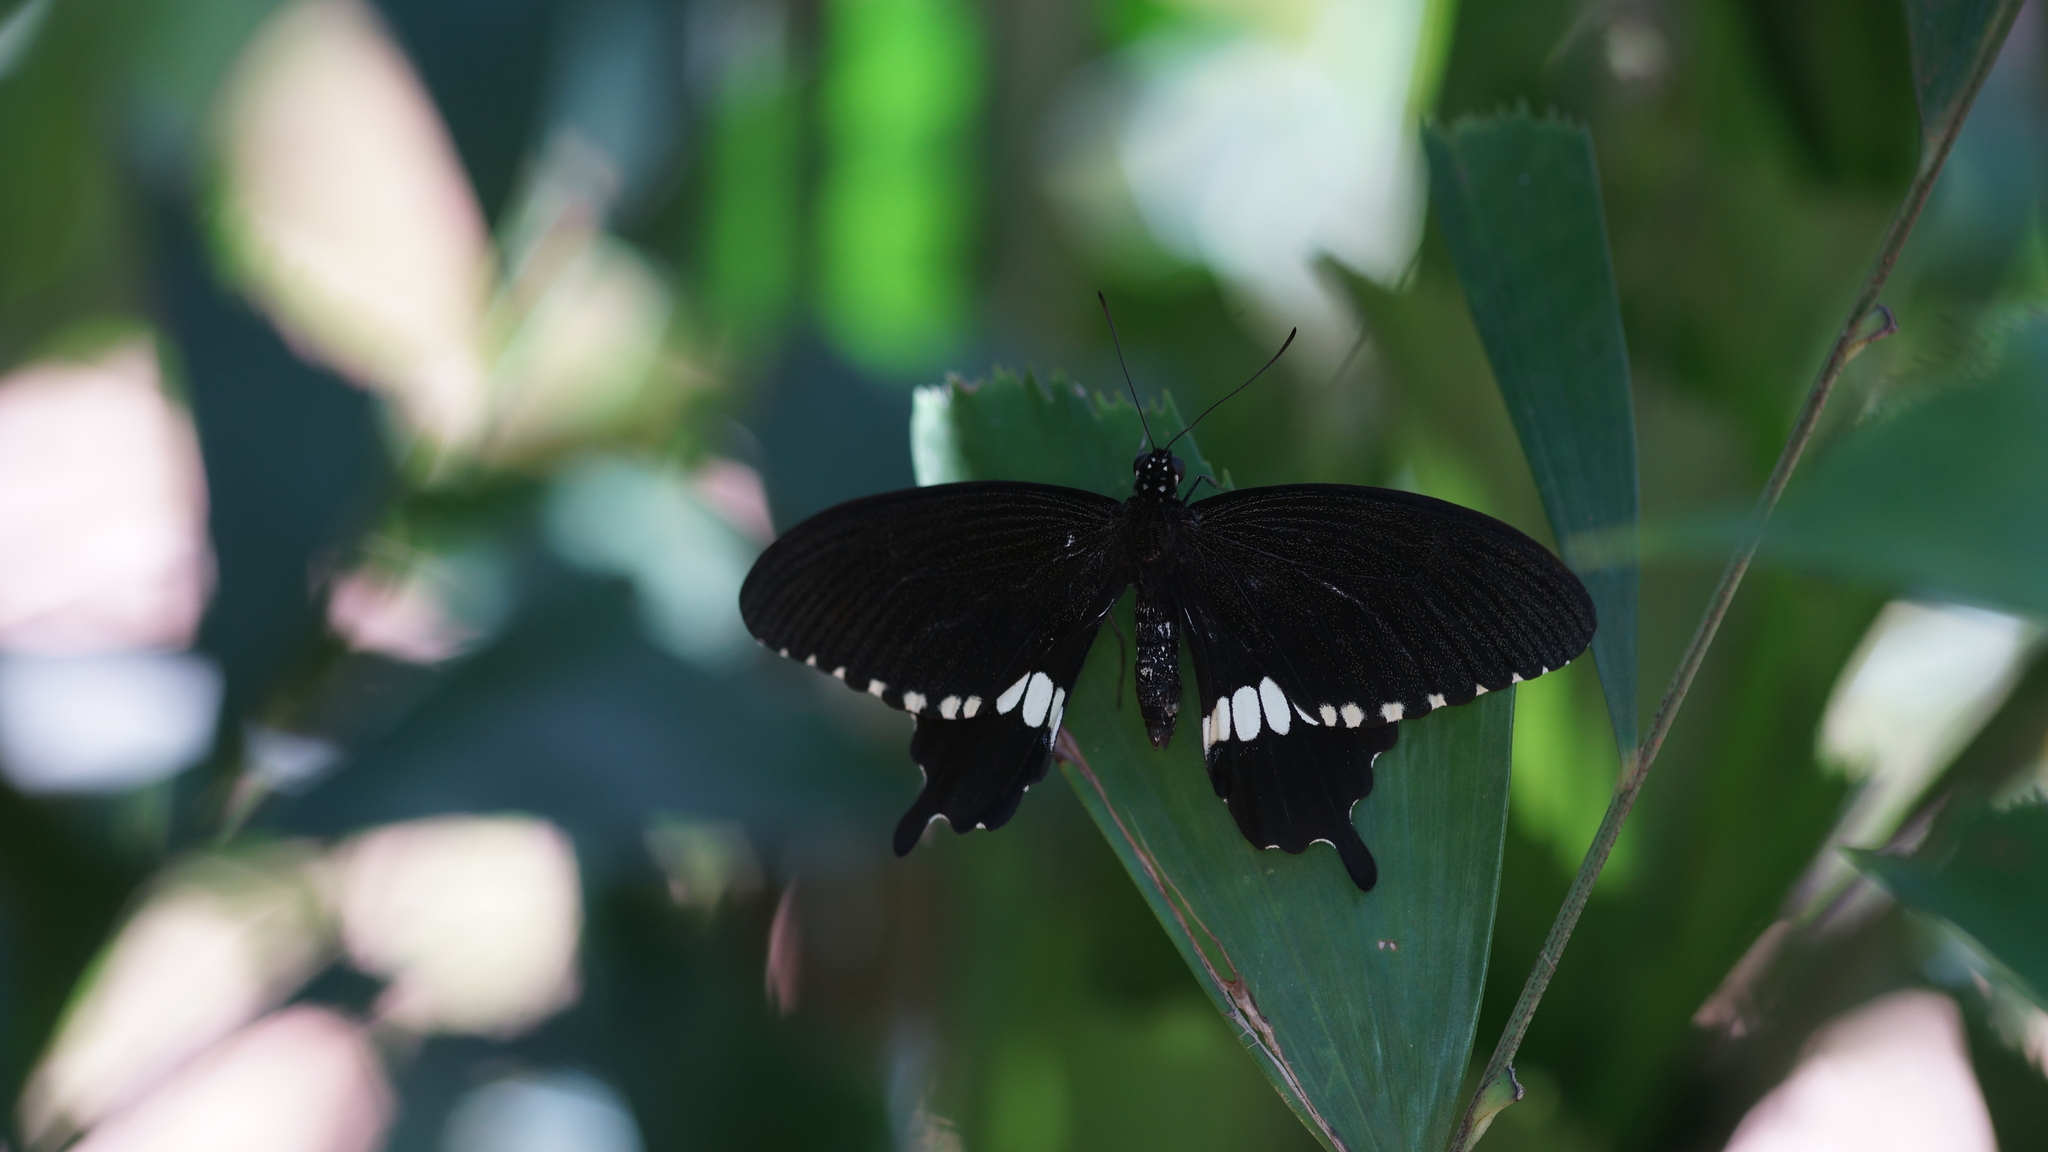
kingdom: Animalia
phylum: Arthropoda
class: Insecta
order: Lepidoptera
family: Papilionidae
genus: Papilio
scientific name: Papilio polytes
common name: Common mormon
